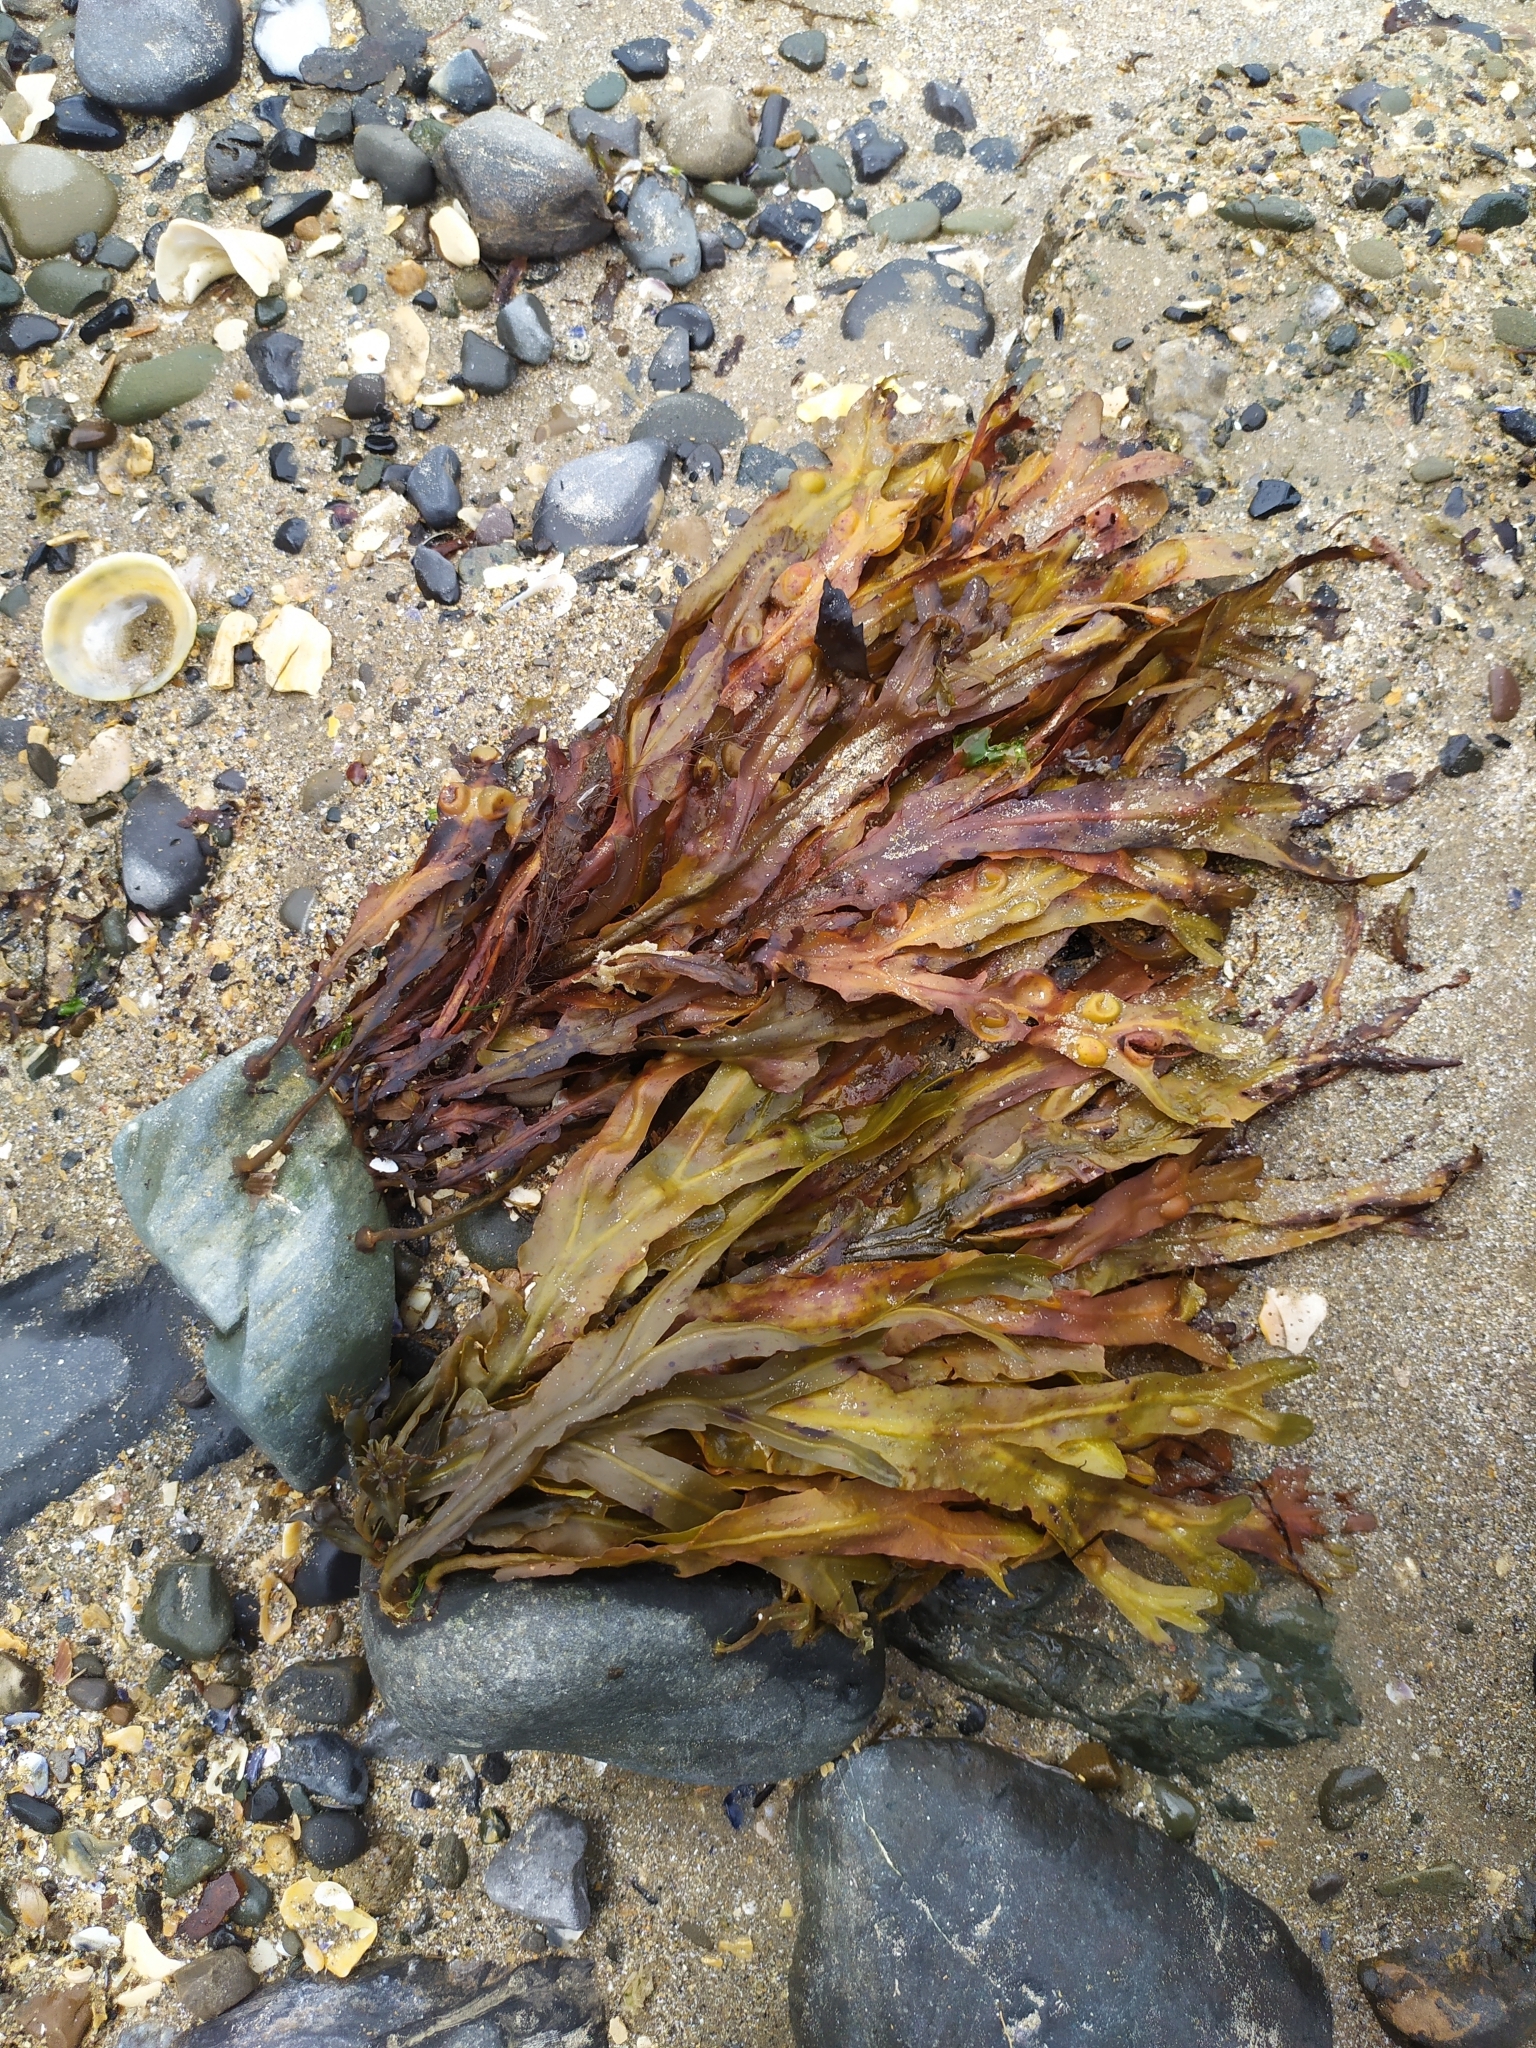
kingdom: Chromista
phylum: Ochrophyta
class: Phaeophyceae
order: Fucales
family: Fucaceae
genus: Fucus
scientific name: Fucus vesiculosus
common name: Bladder wrack
